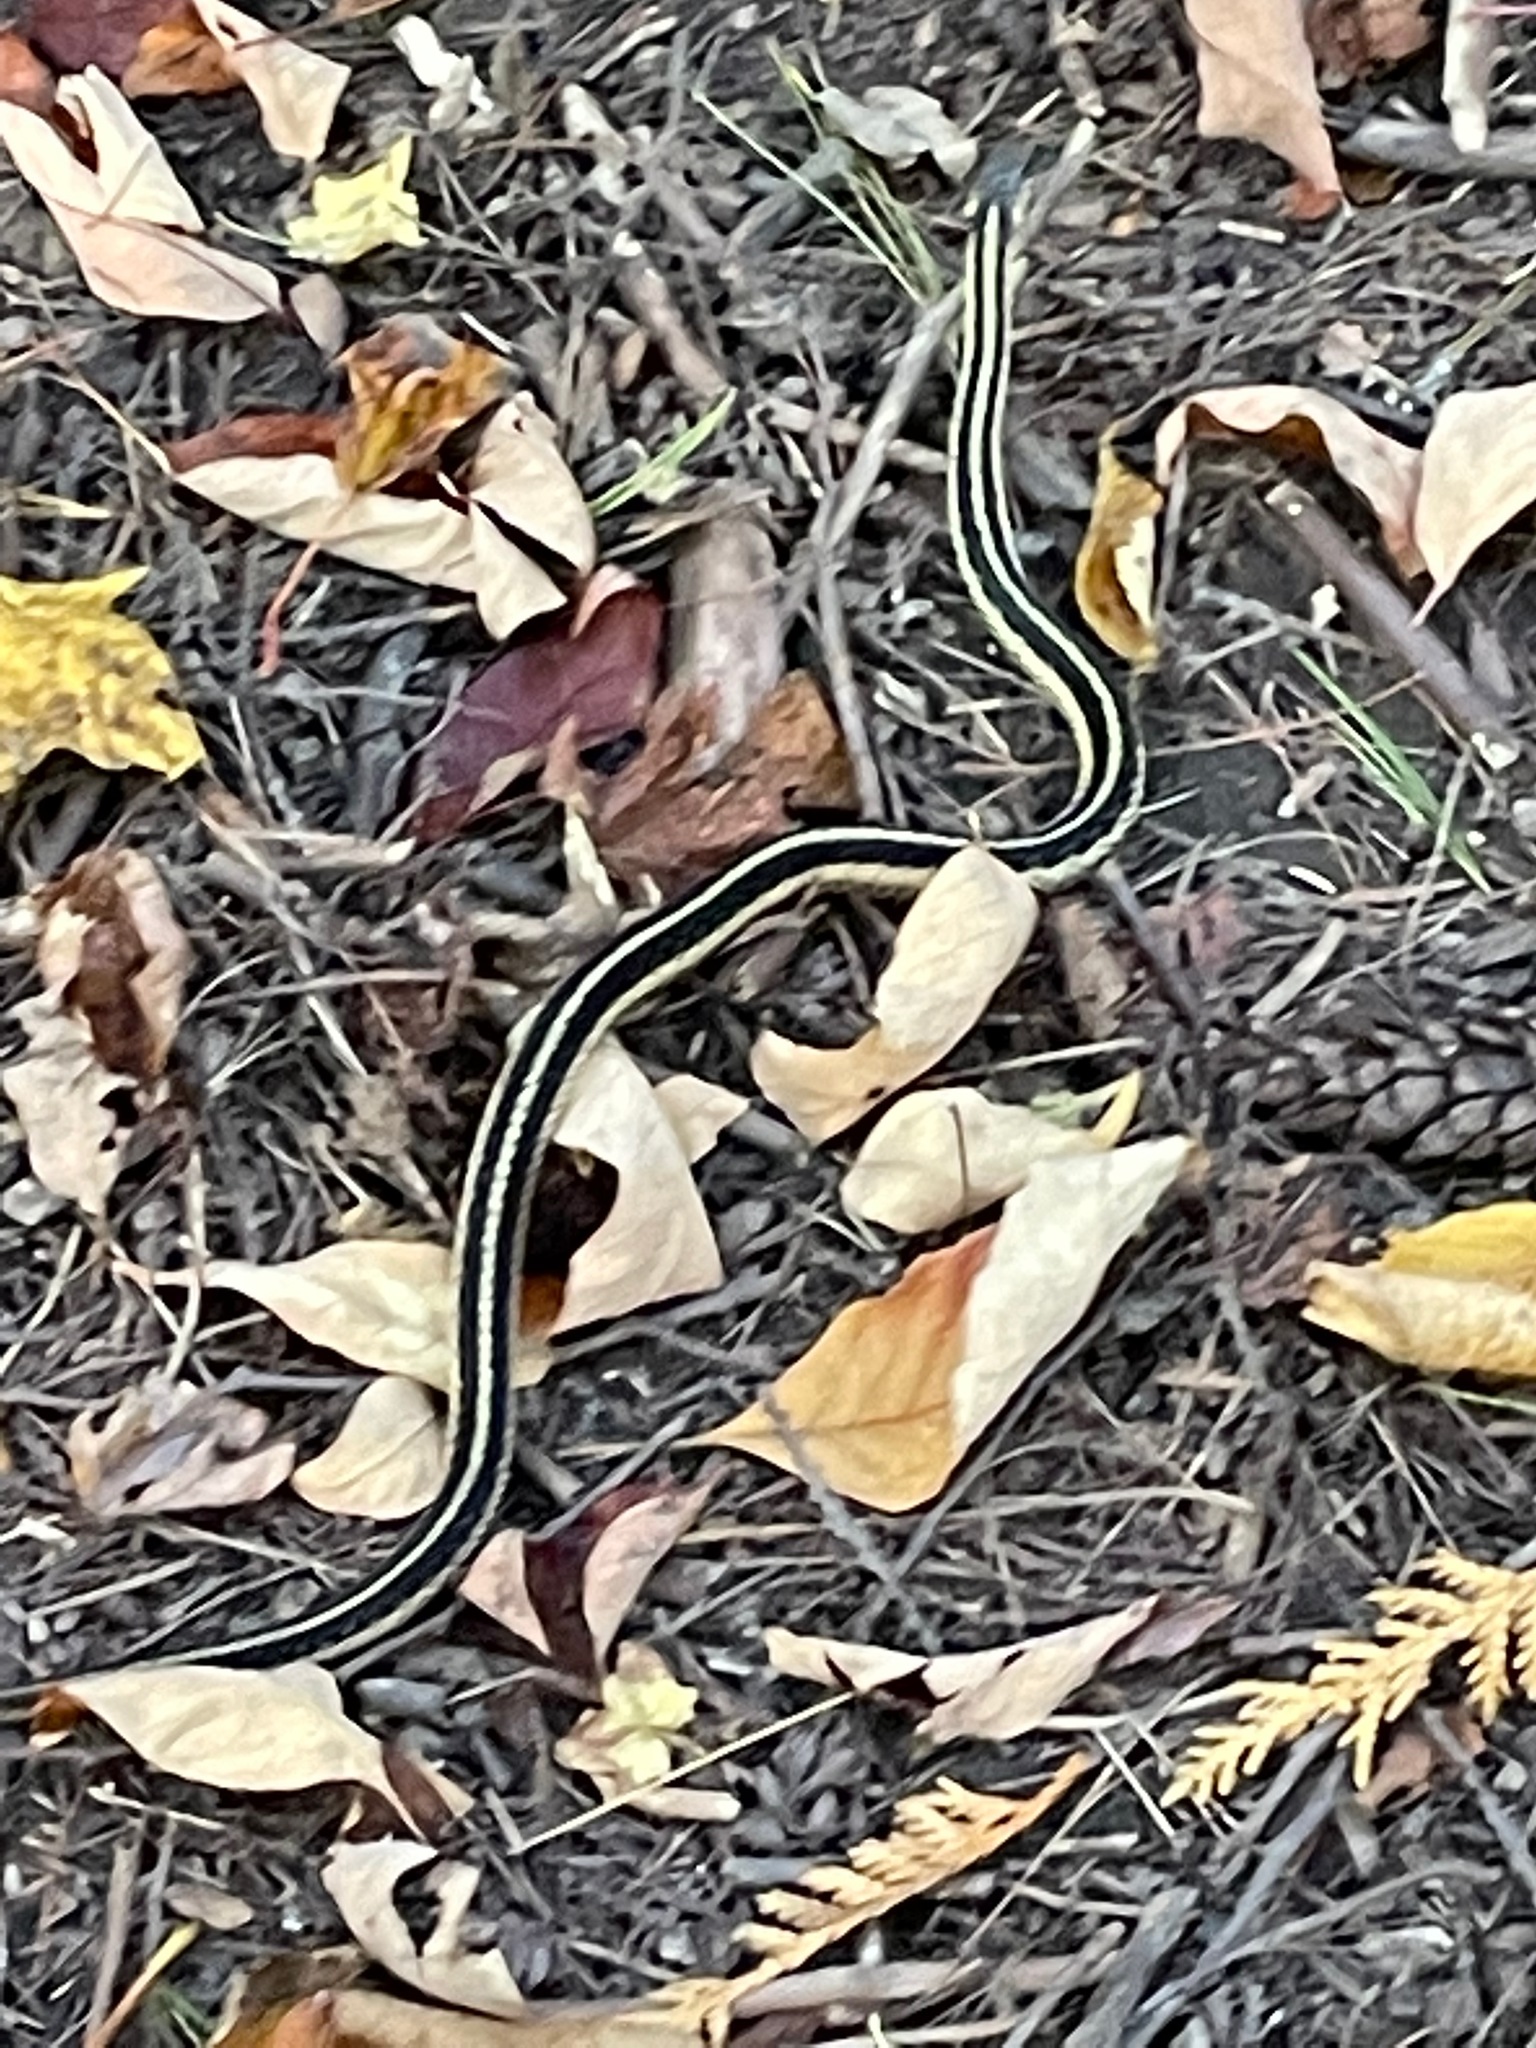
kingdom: Animalia
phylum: Chordata
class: Squamata
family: Colubridae
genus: Thamnophis
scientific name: Thamnophis sirtalis
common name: Common garter snake
